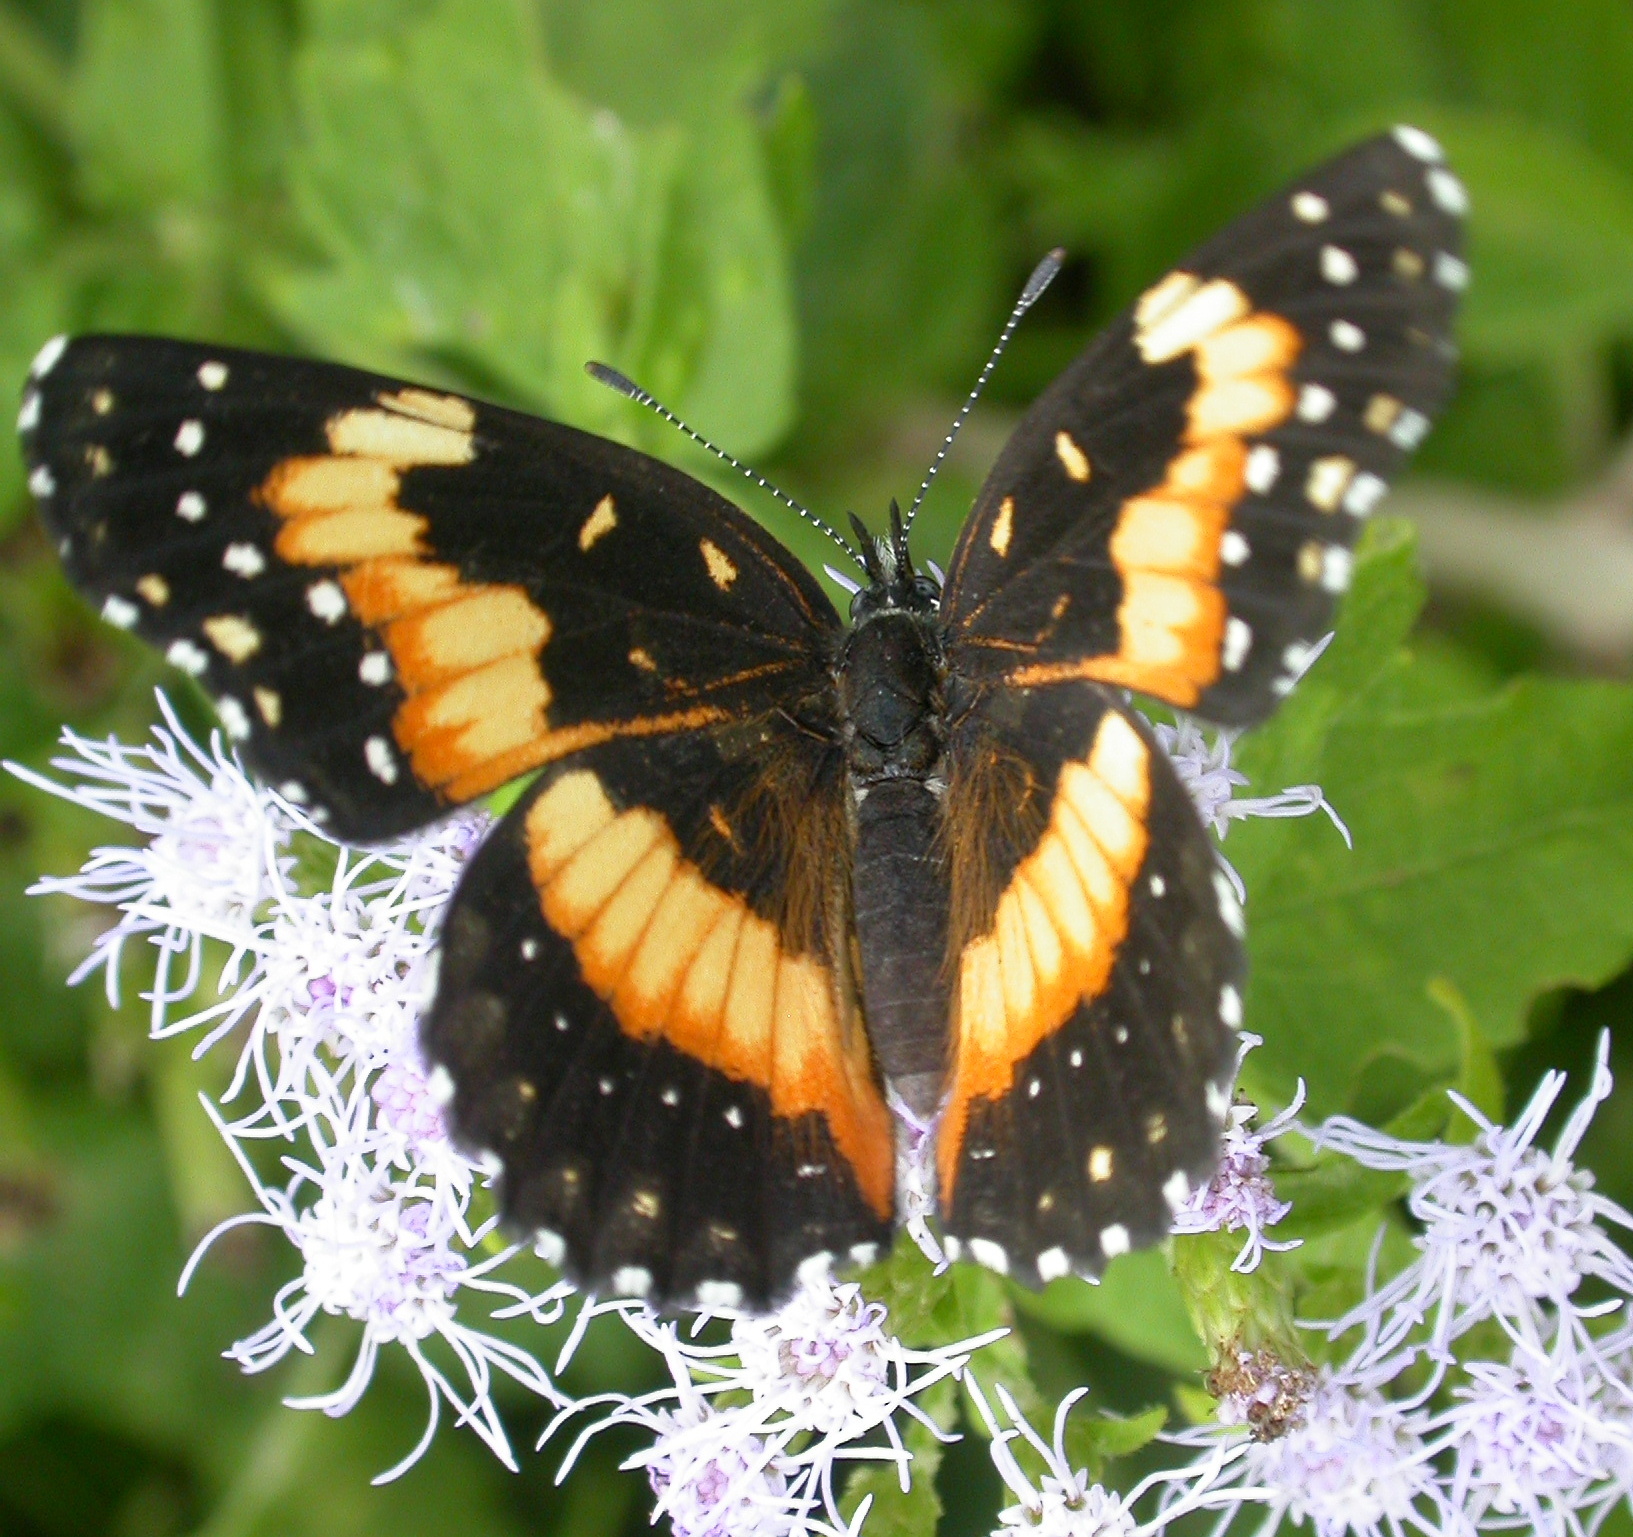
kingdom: Animalia
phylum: Arthropoda
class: Insecta
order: Lepidoptera
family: Nymphalidae
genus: Chlosyne
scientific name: Chlosyne lacinia
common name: Bordered patch
